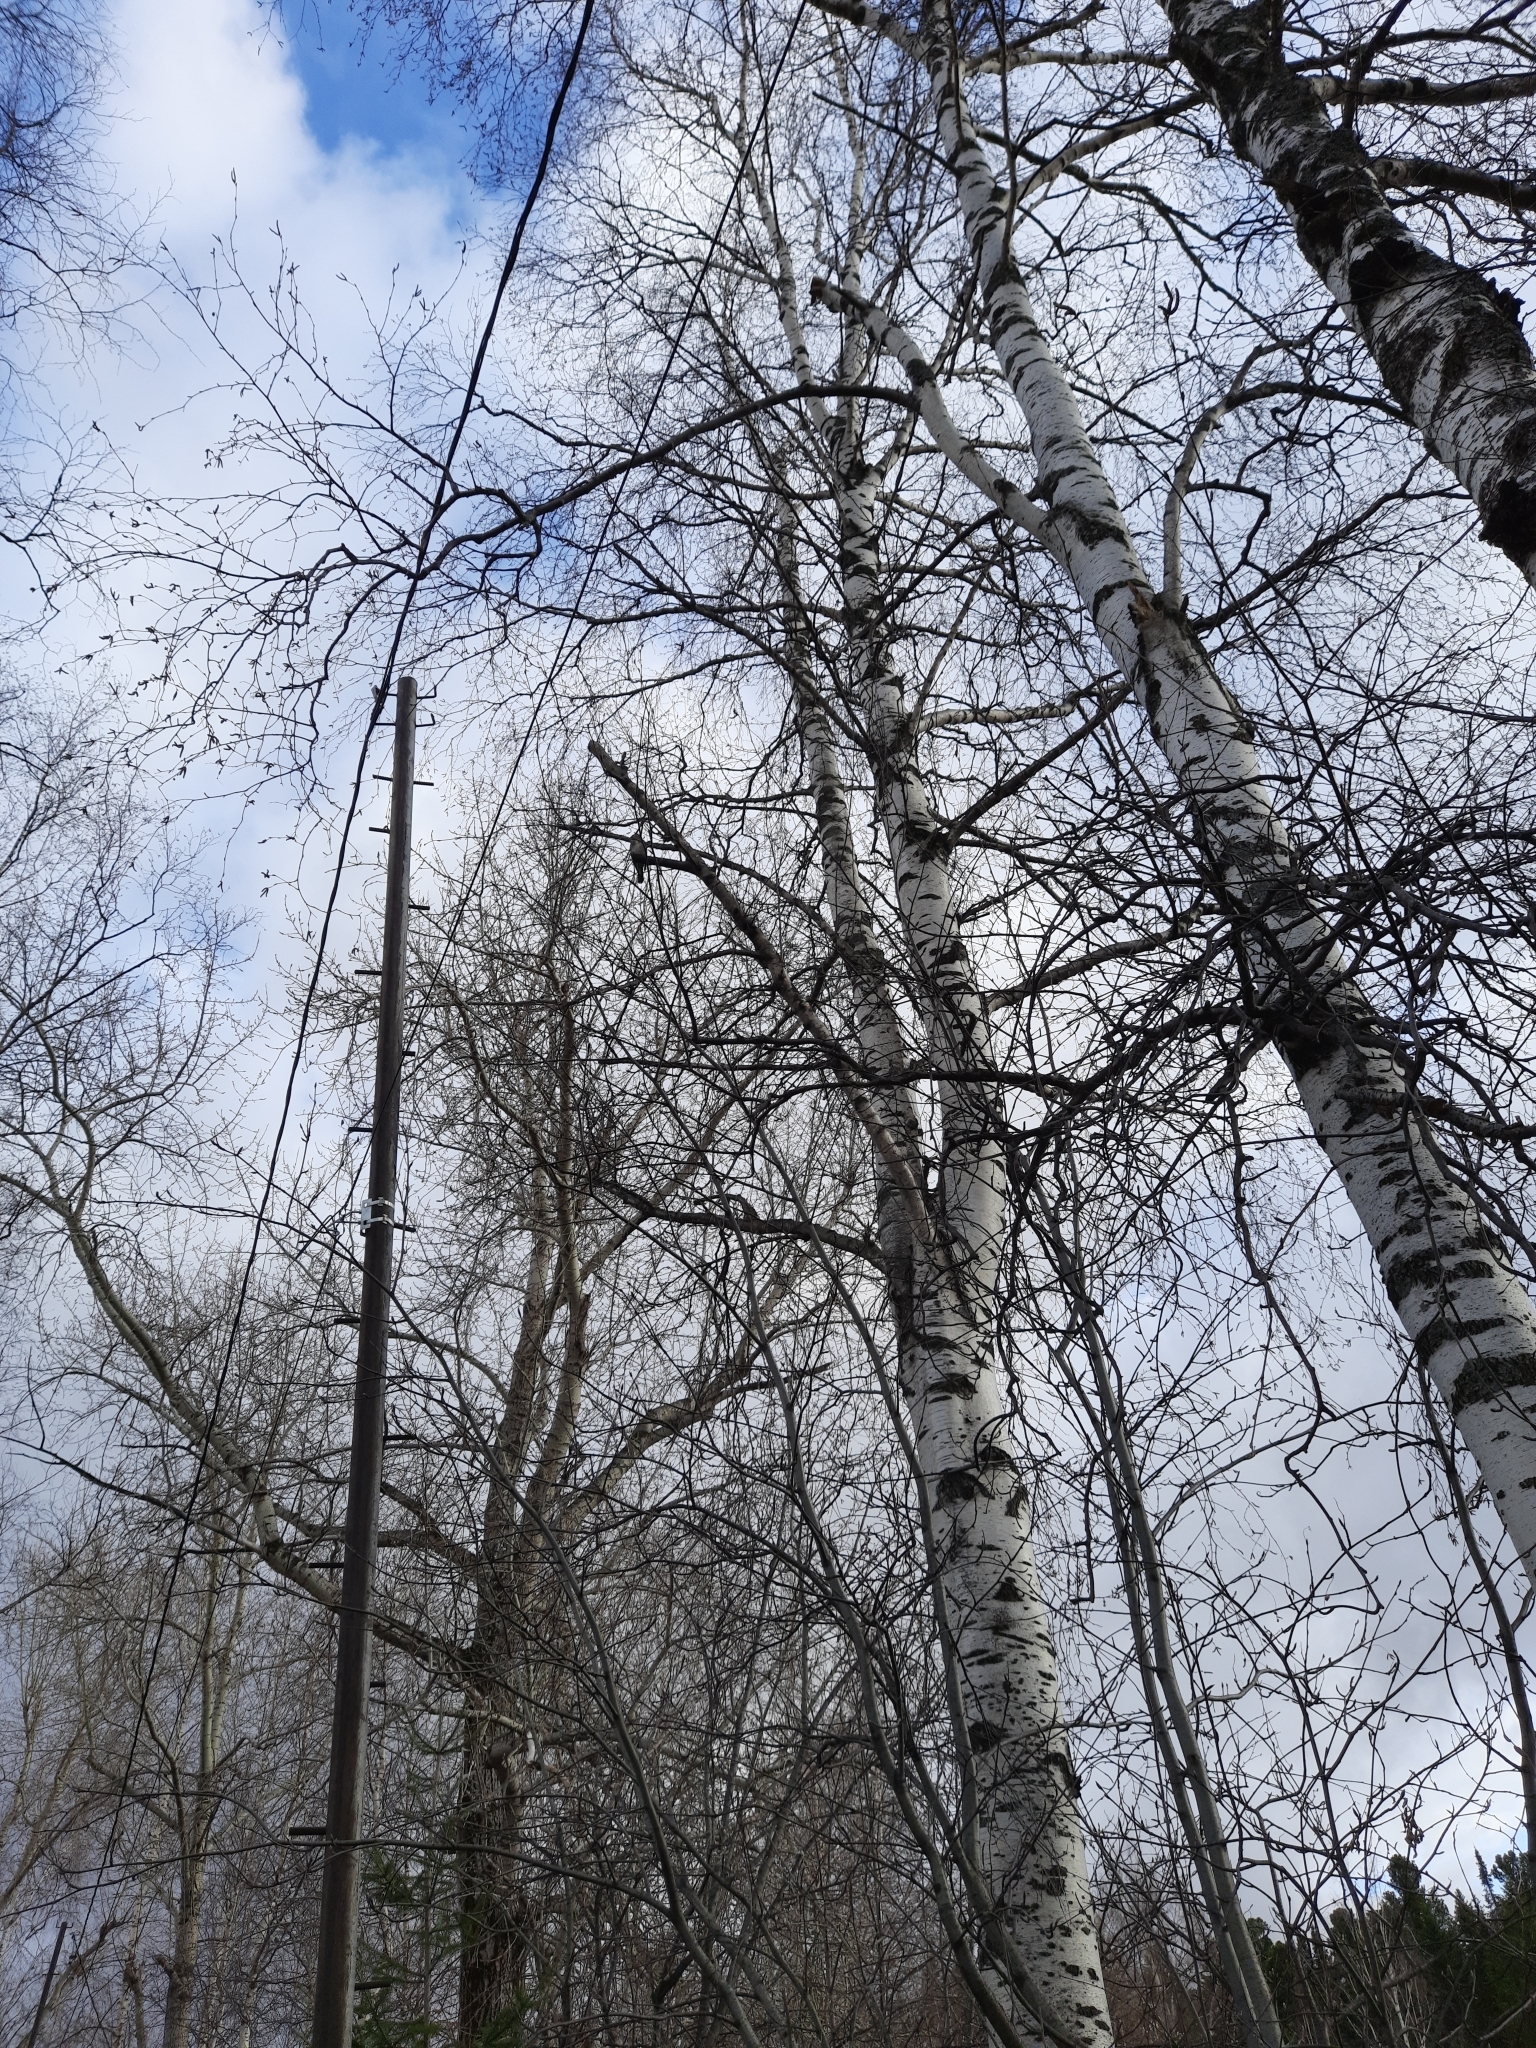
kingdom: Plantae
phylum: Tracheophyta
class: Magnoliopsida
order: Fagales
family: Betulaceae
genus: Betula
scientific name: Betula pendula
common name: Silver birch
